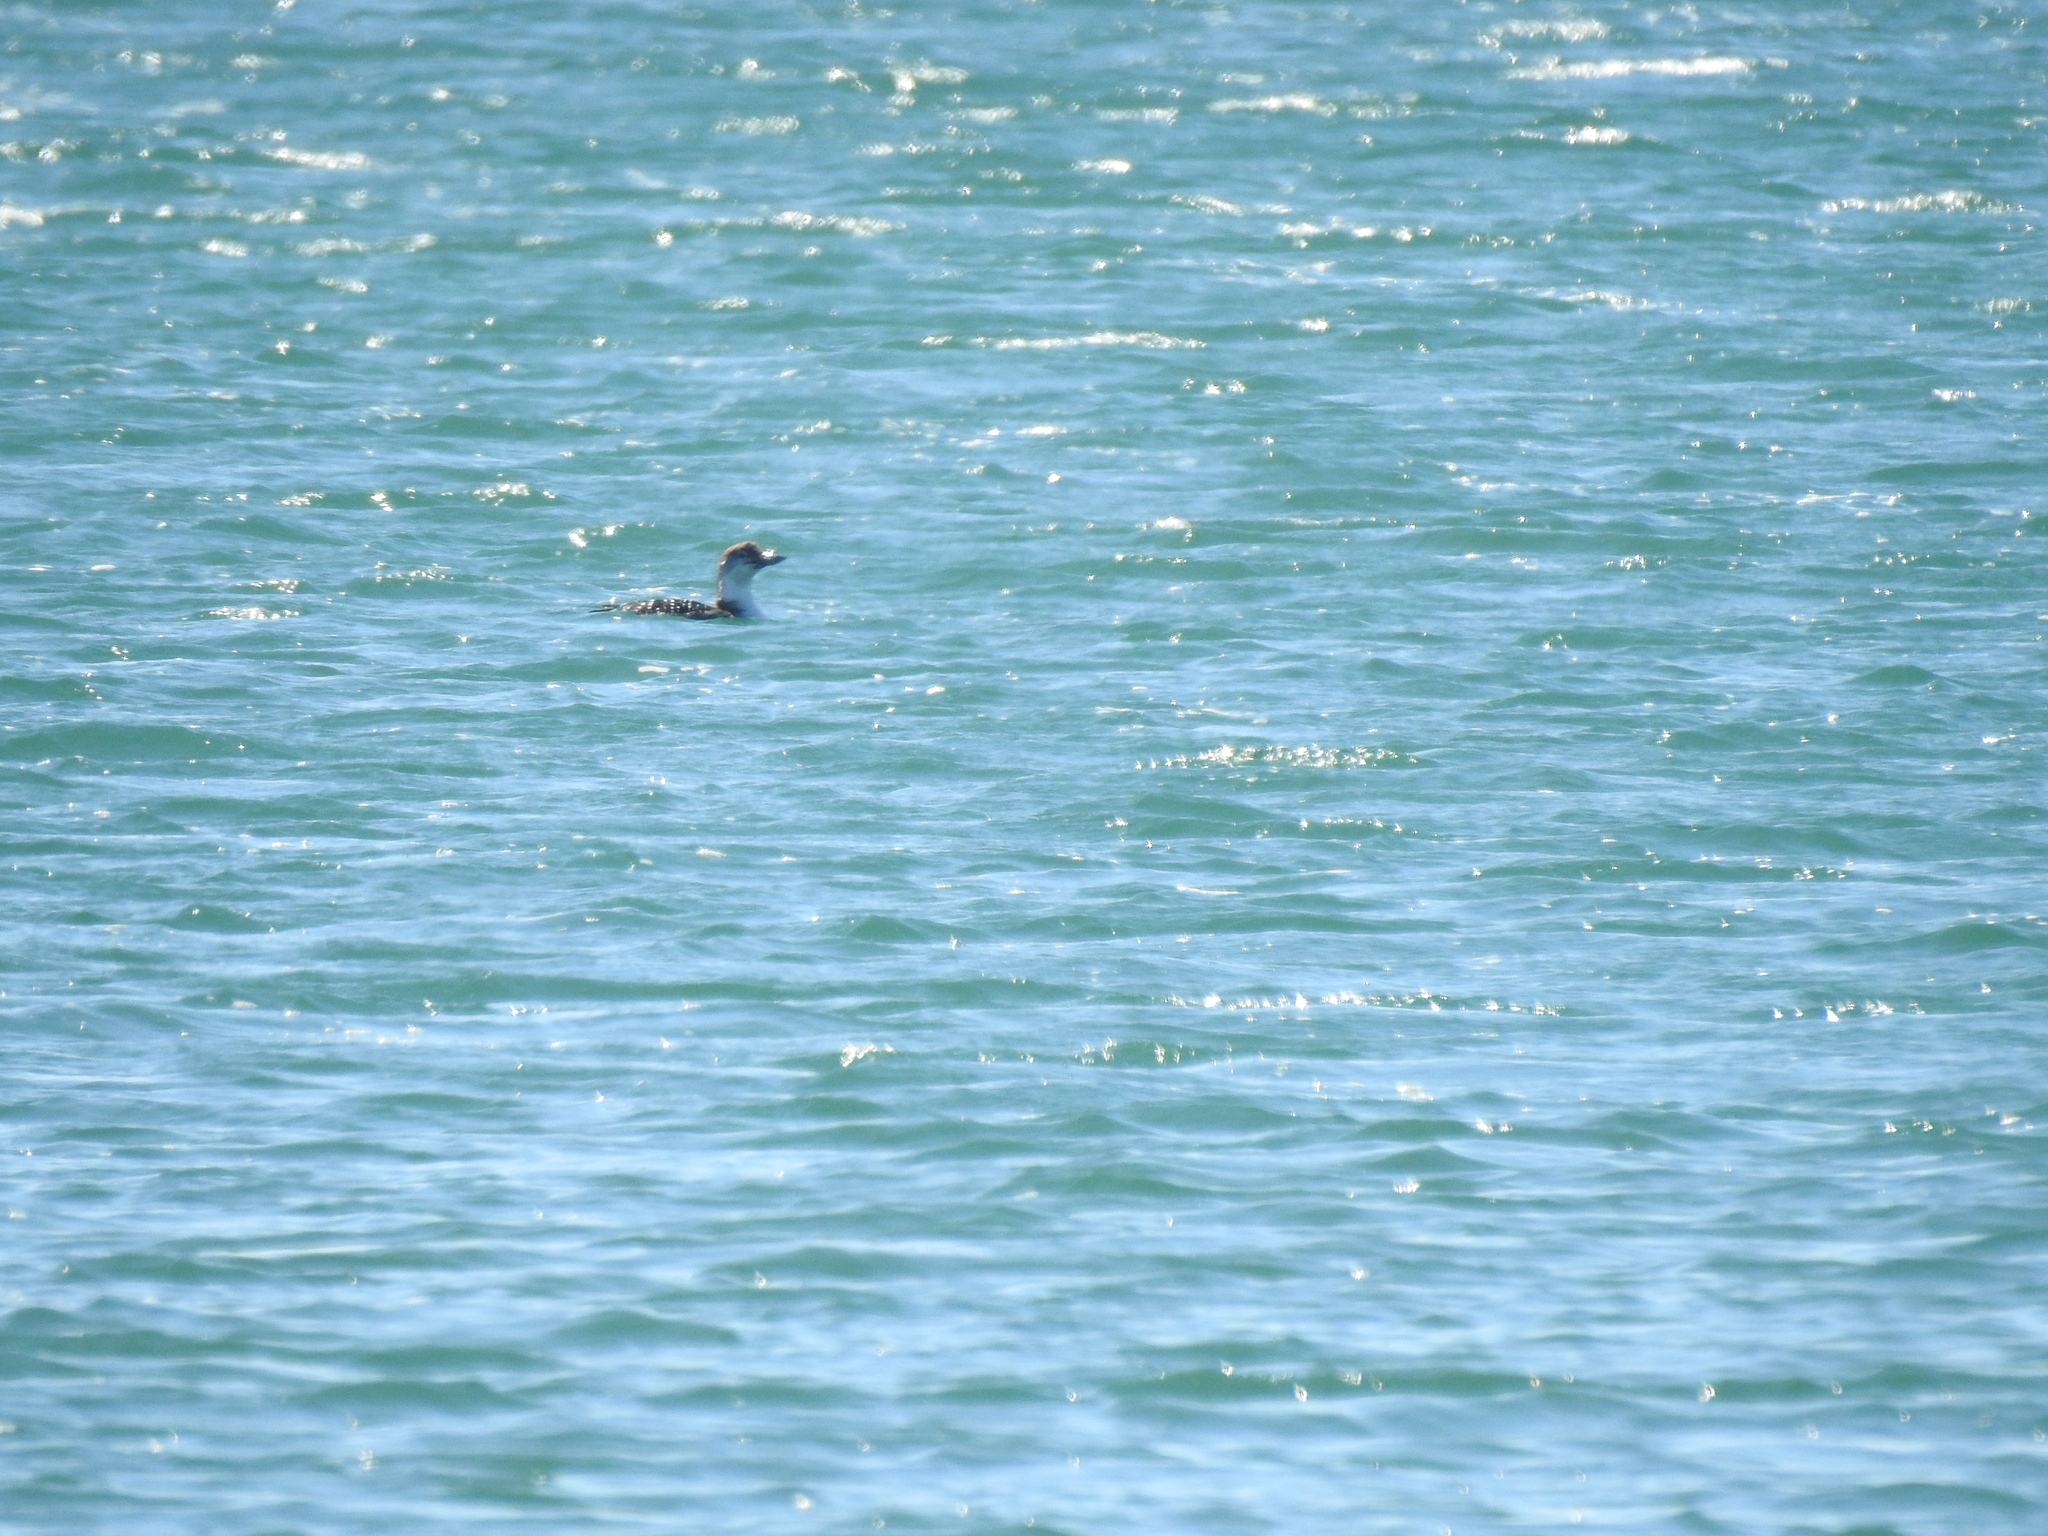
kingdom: Animalia
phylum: Chordata
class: Aves
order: Gaviiformes
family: Gaviidae
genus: Gavia
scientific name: Gavia immer
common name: Common loon
